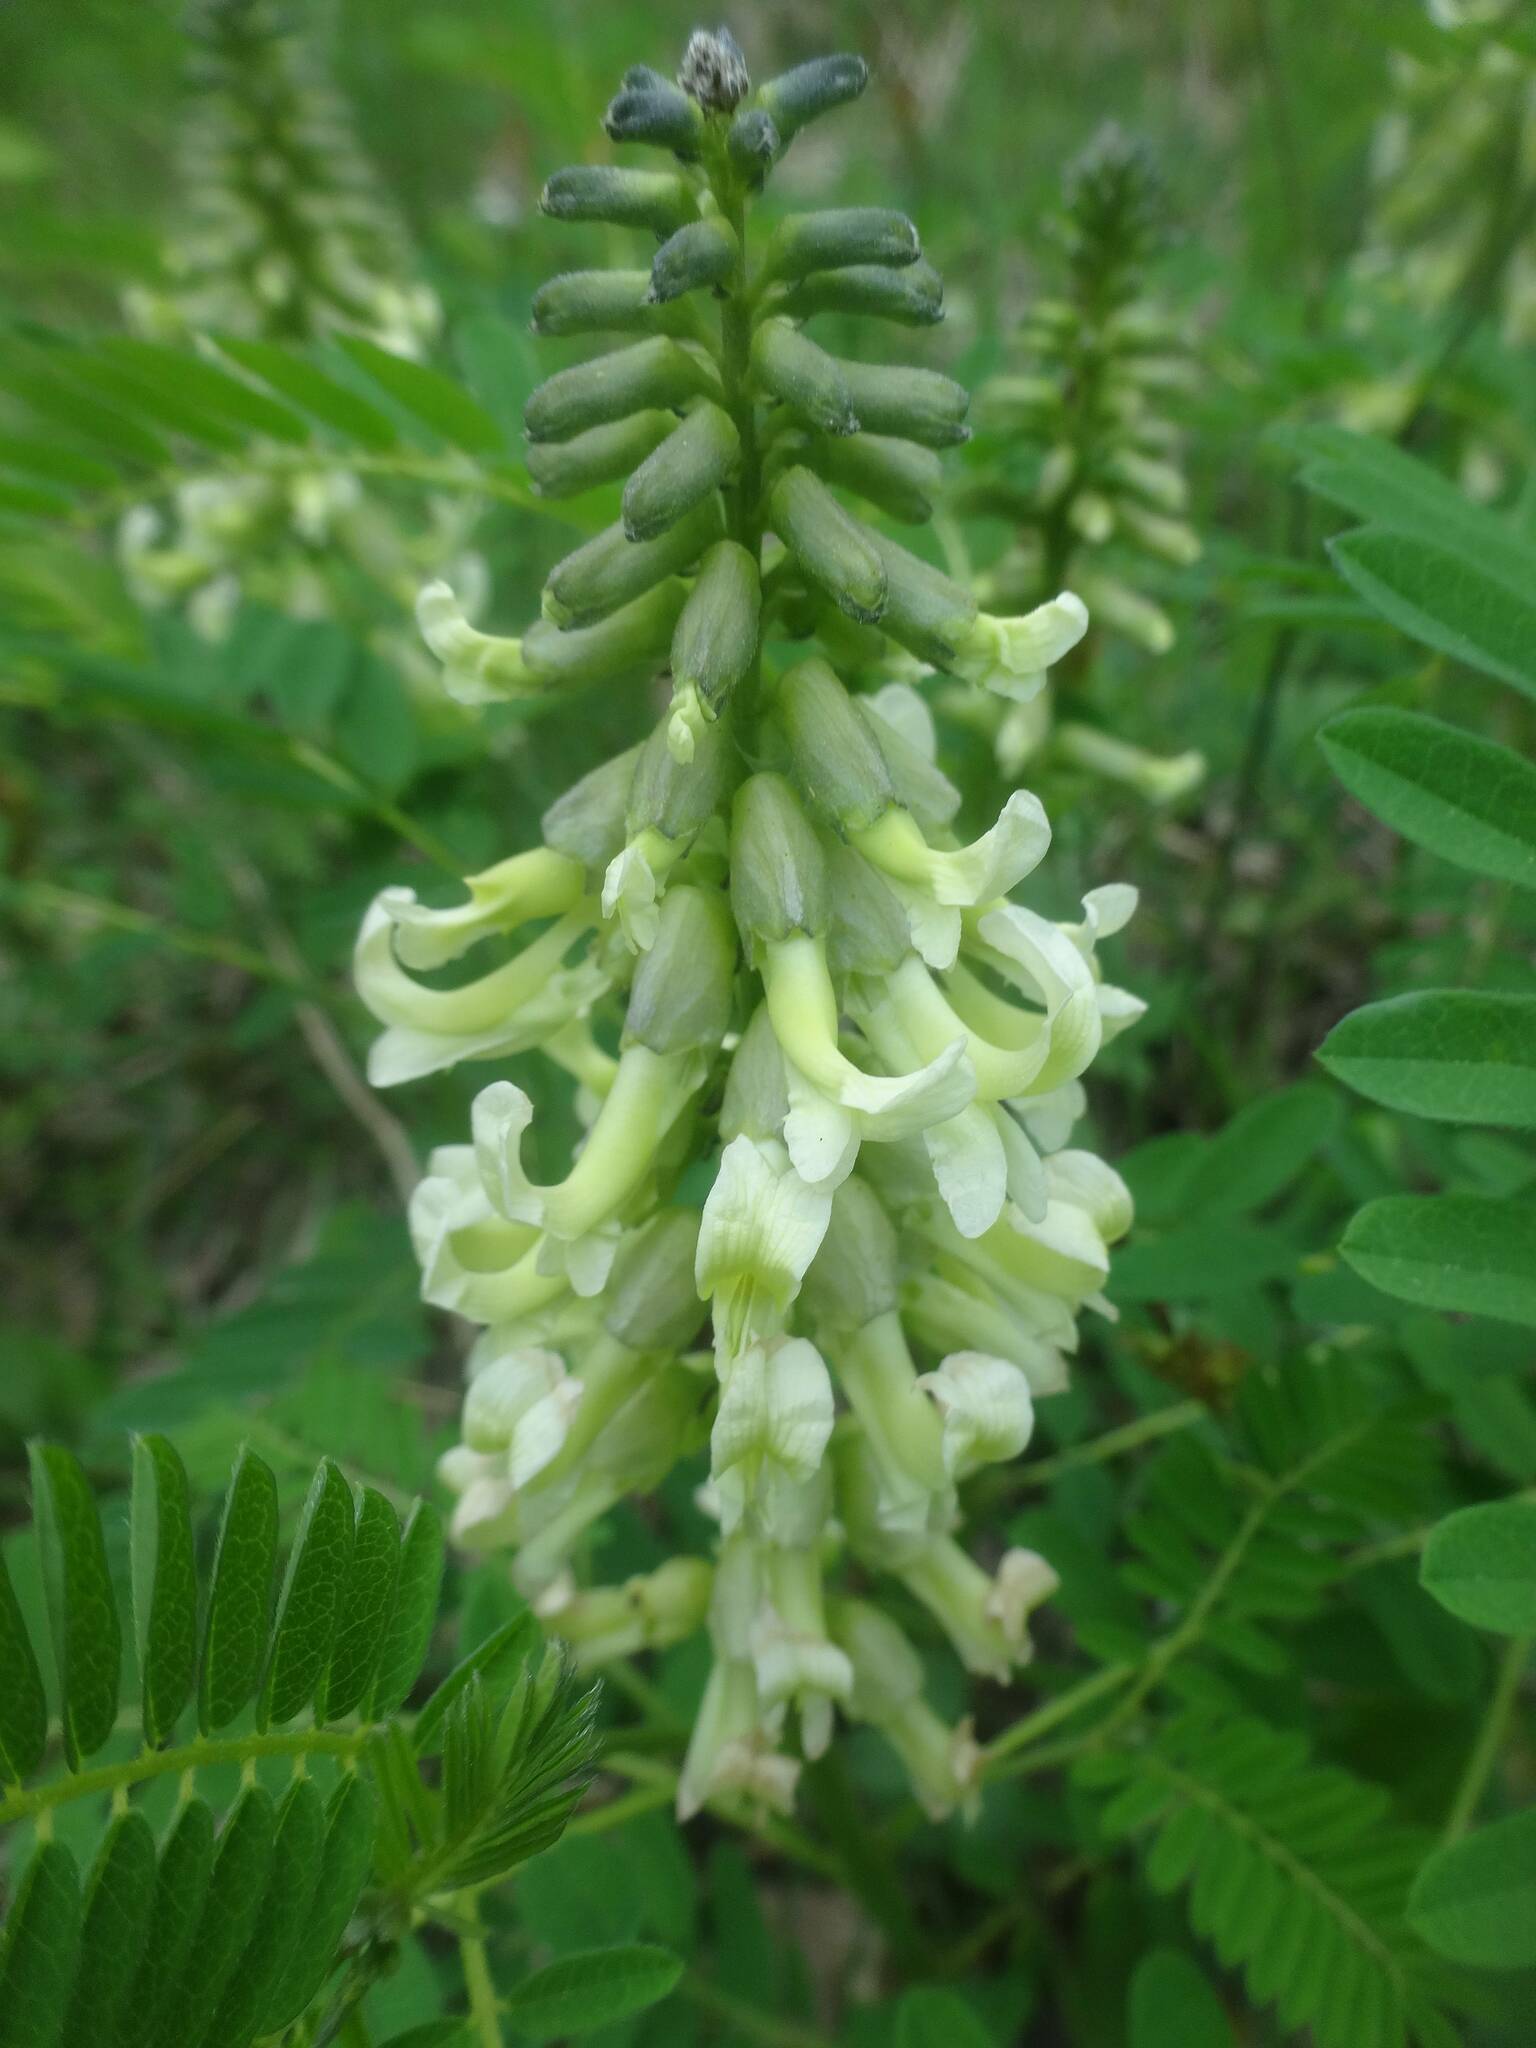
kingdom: Plantae
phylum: Tracheophyta
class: Magnoliopsida
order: Fabales
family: Fabaceae
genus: Sophora
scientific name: Sophora alopecuroides
